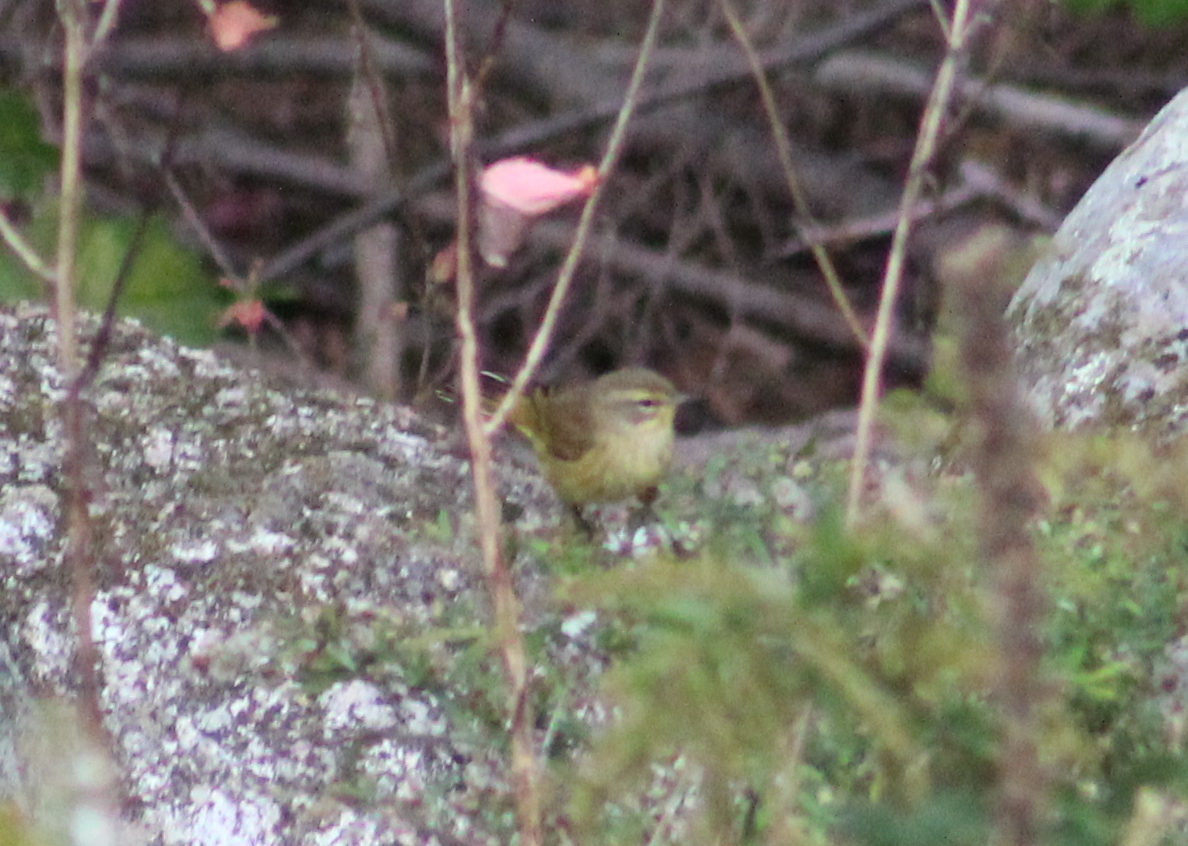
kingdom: Animalia
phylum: Chordata
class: Aves
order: Passeriformes
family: Parulidae
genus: Setophaga
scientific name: Setophaga palmarum
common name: Palm warbler
